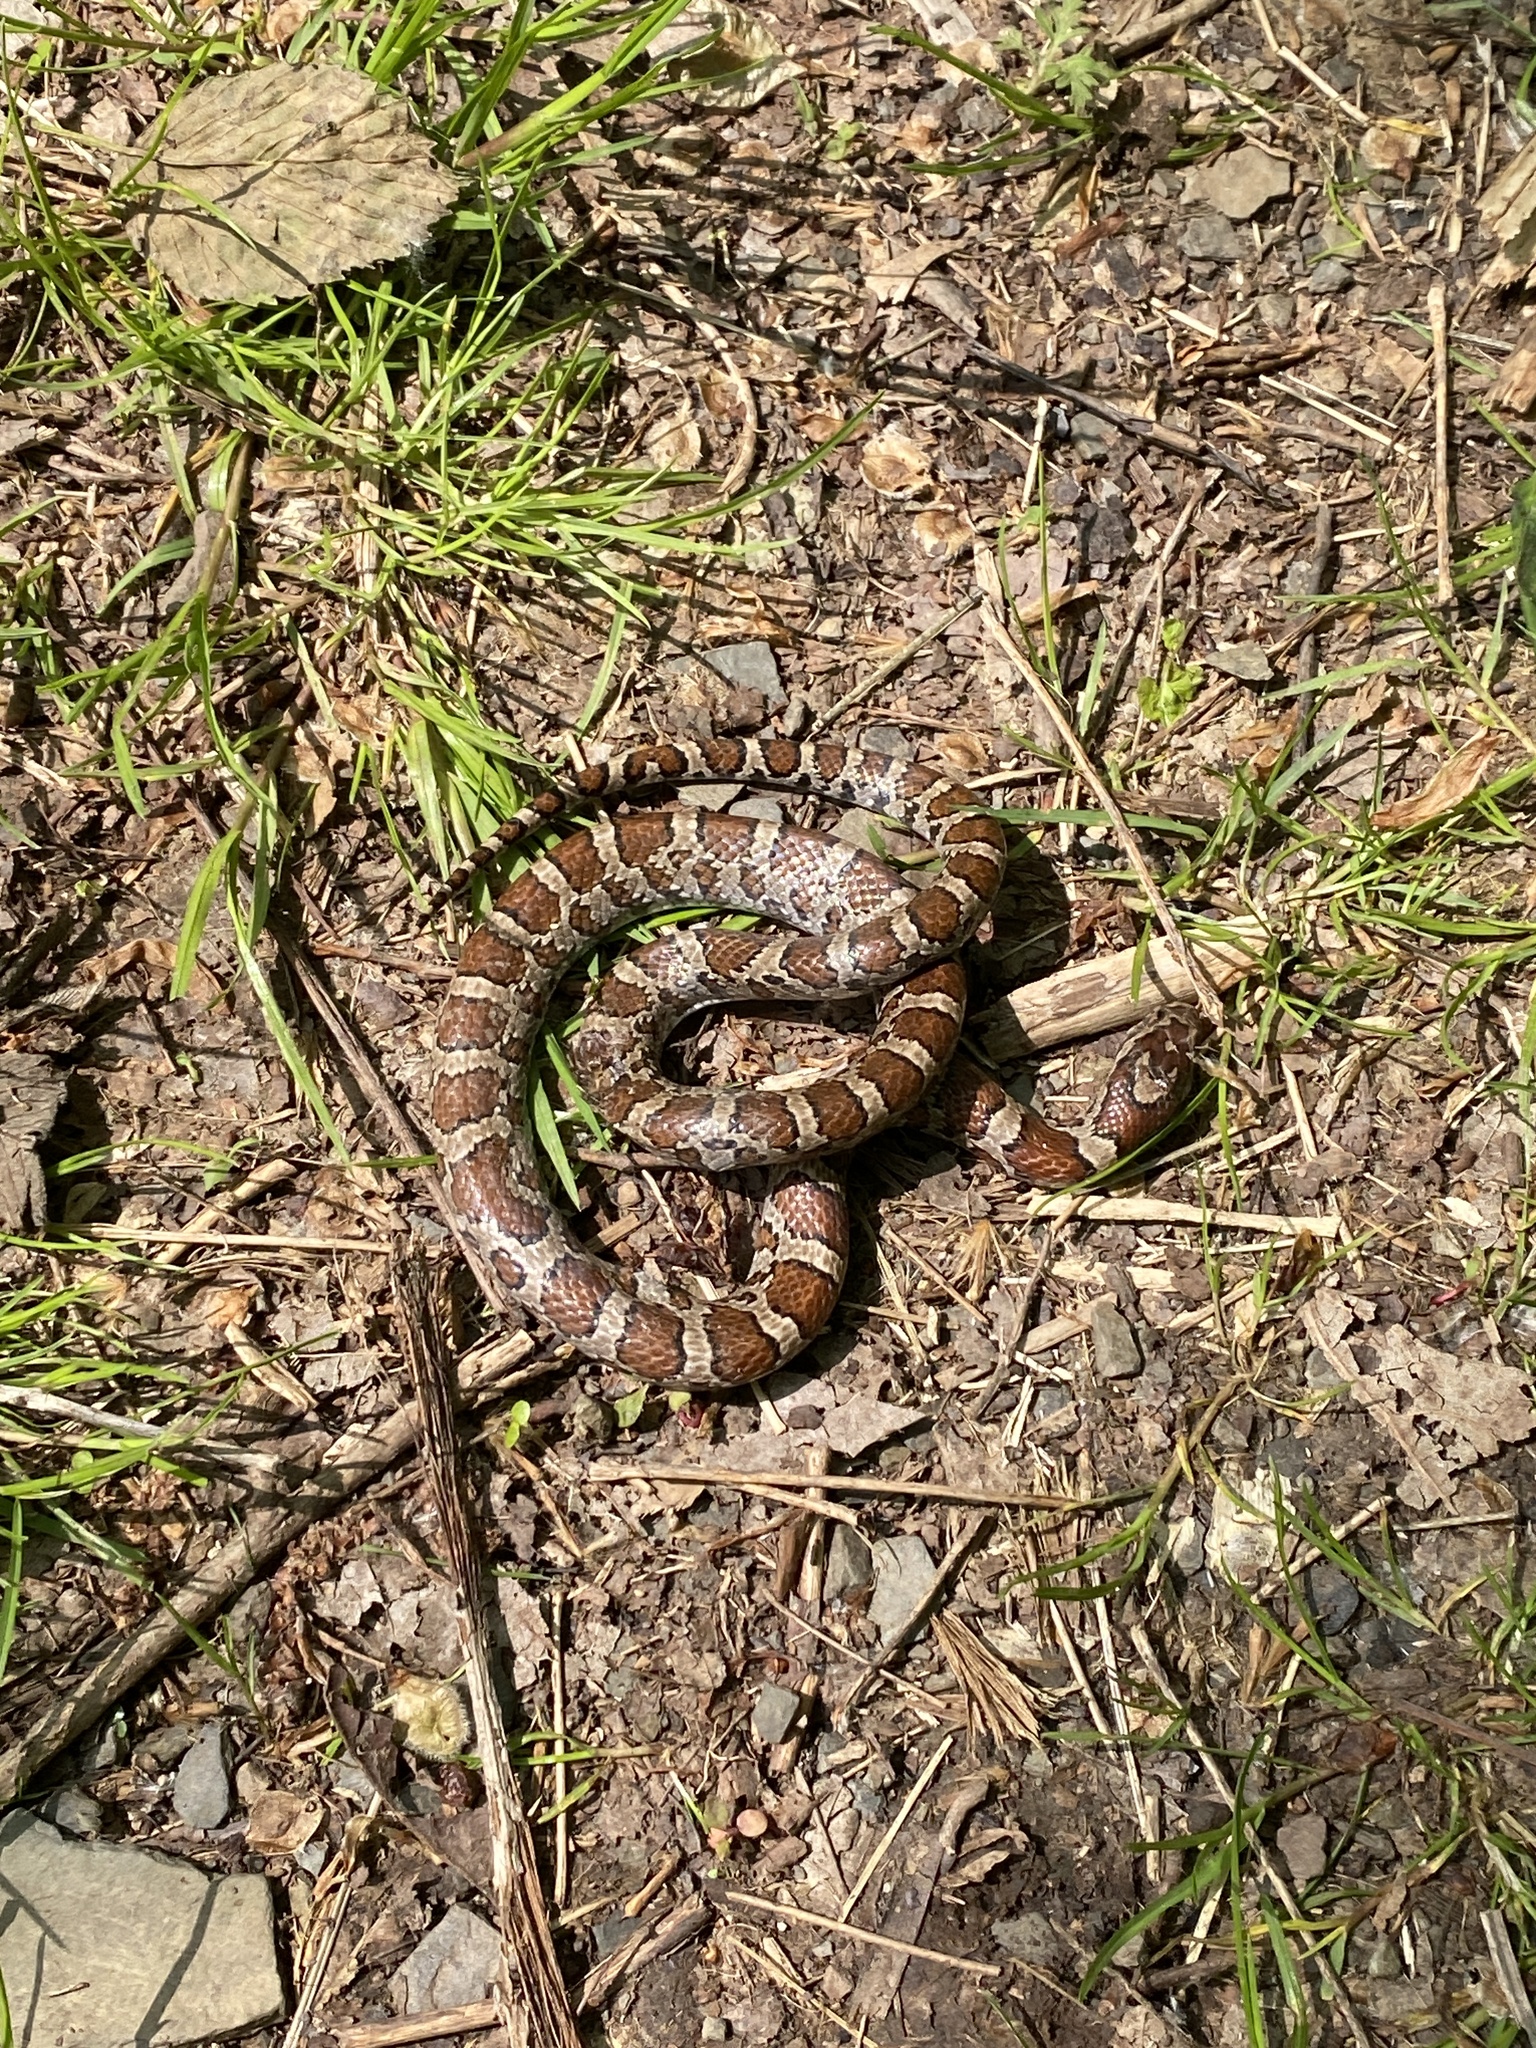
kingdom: Animalia
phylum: Chordata
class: Squamata
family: Colubridae
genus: Lampropeltis
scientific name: Lampropeltis triangulum
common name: Eastern milksnake
